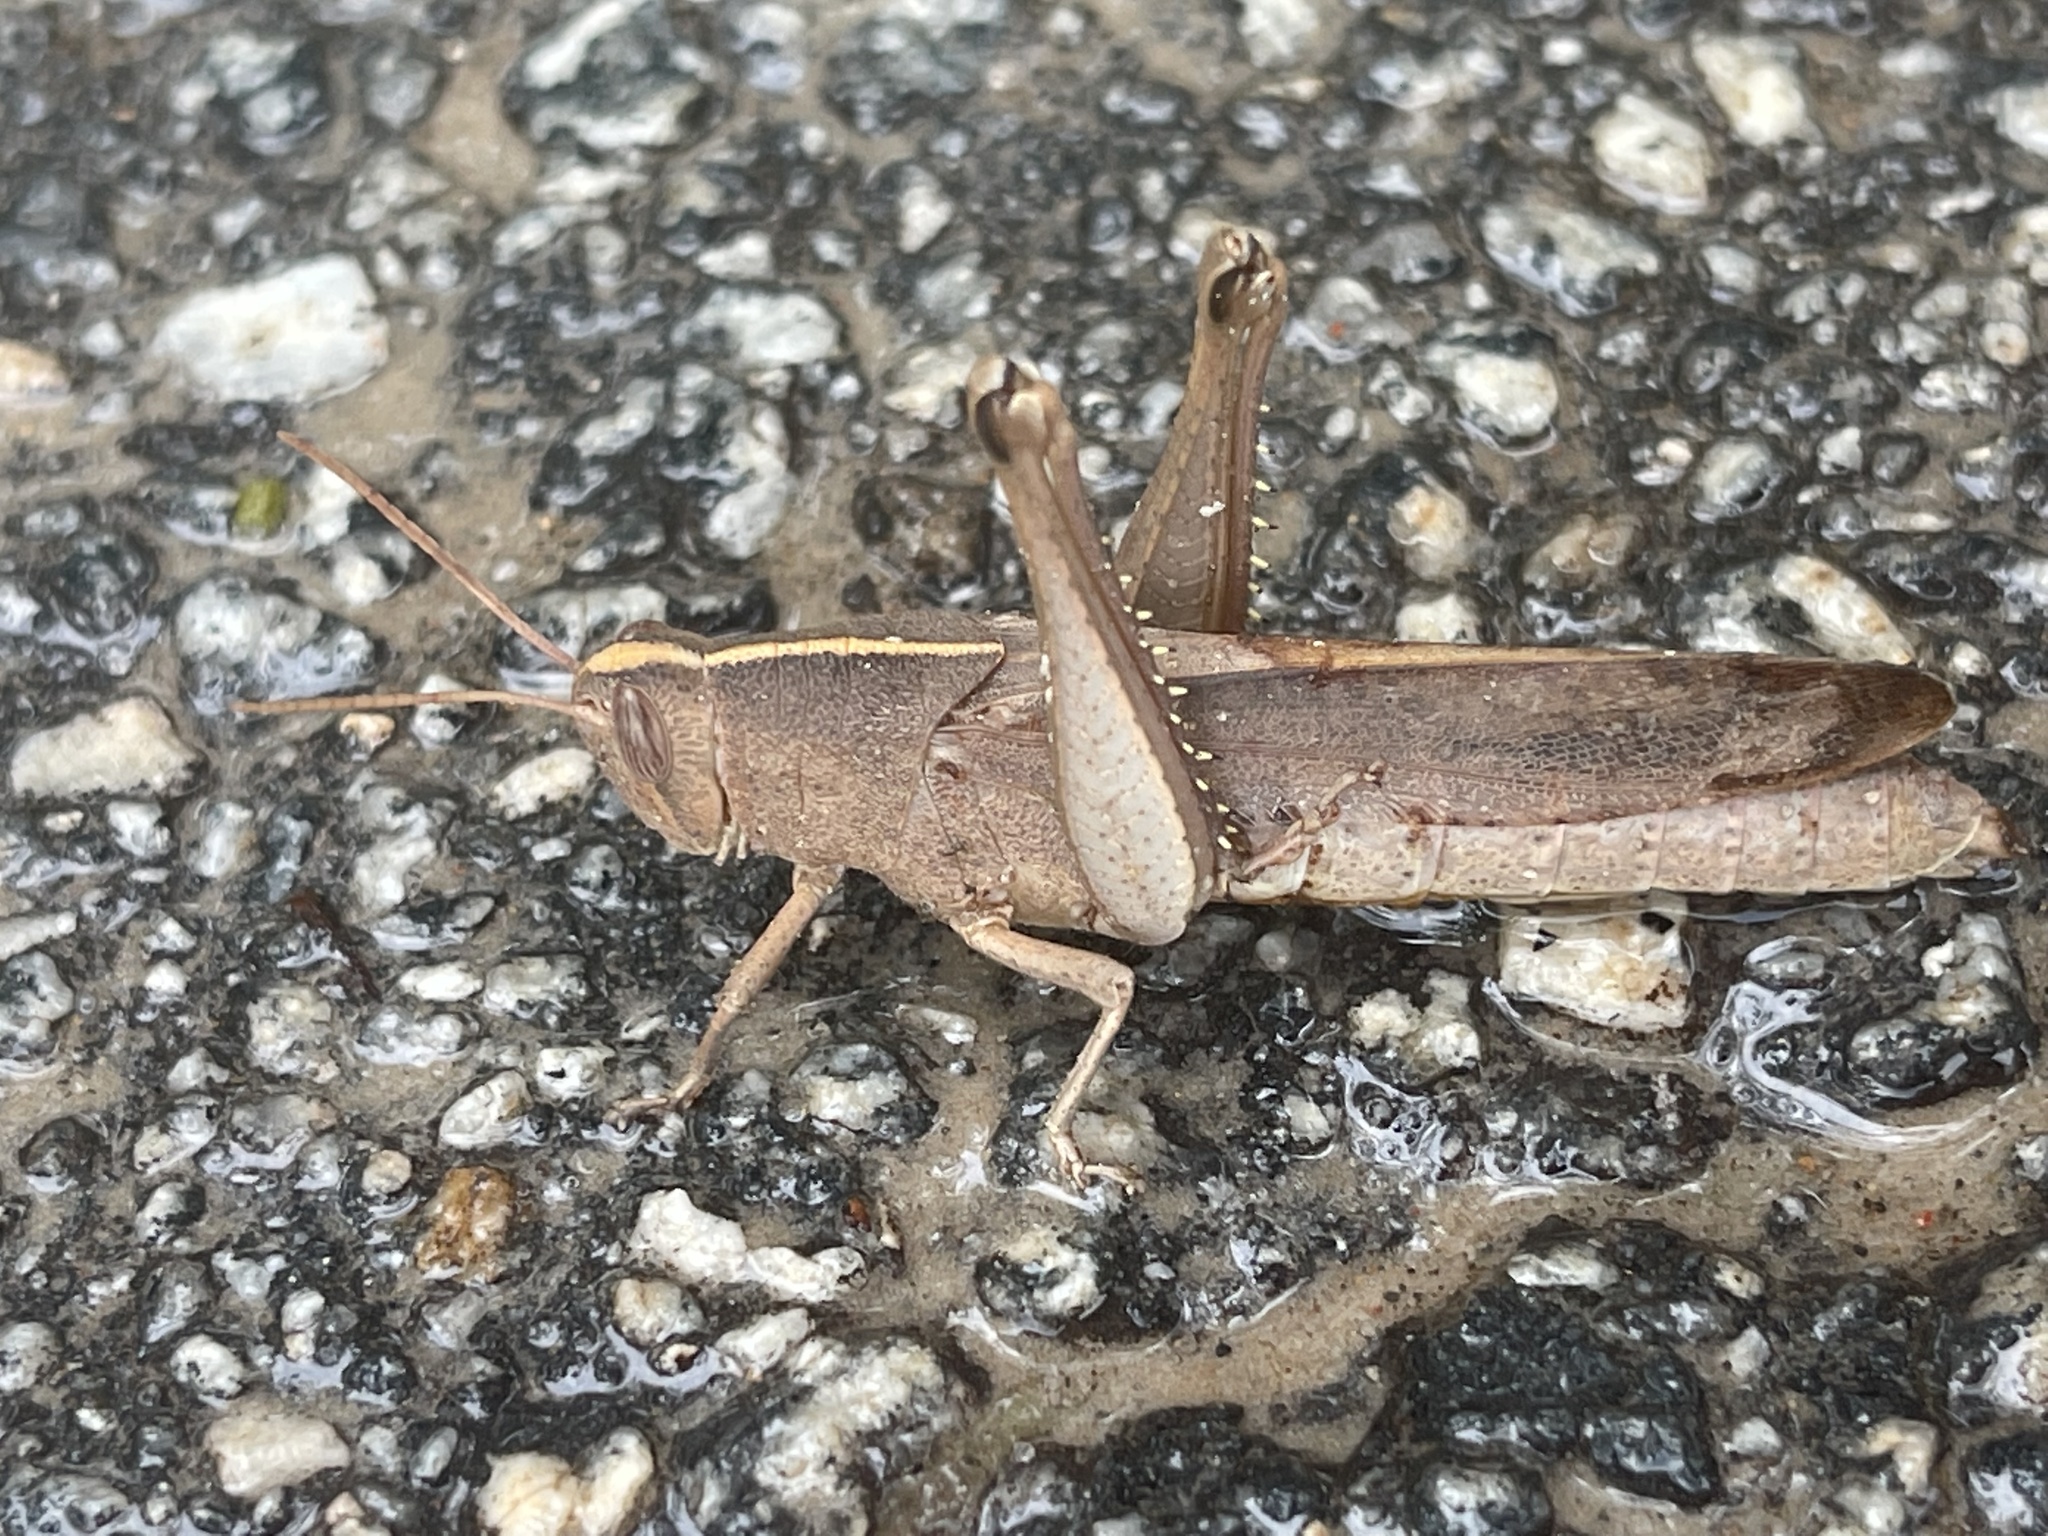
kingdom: Animalia
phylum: Arthropoda
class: Insecta
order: Orthoptera
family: Acrididae
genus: Schistocerca
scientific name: Schistocerca damnifica
